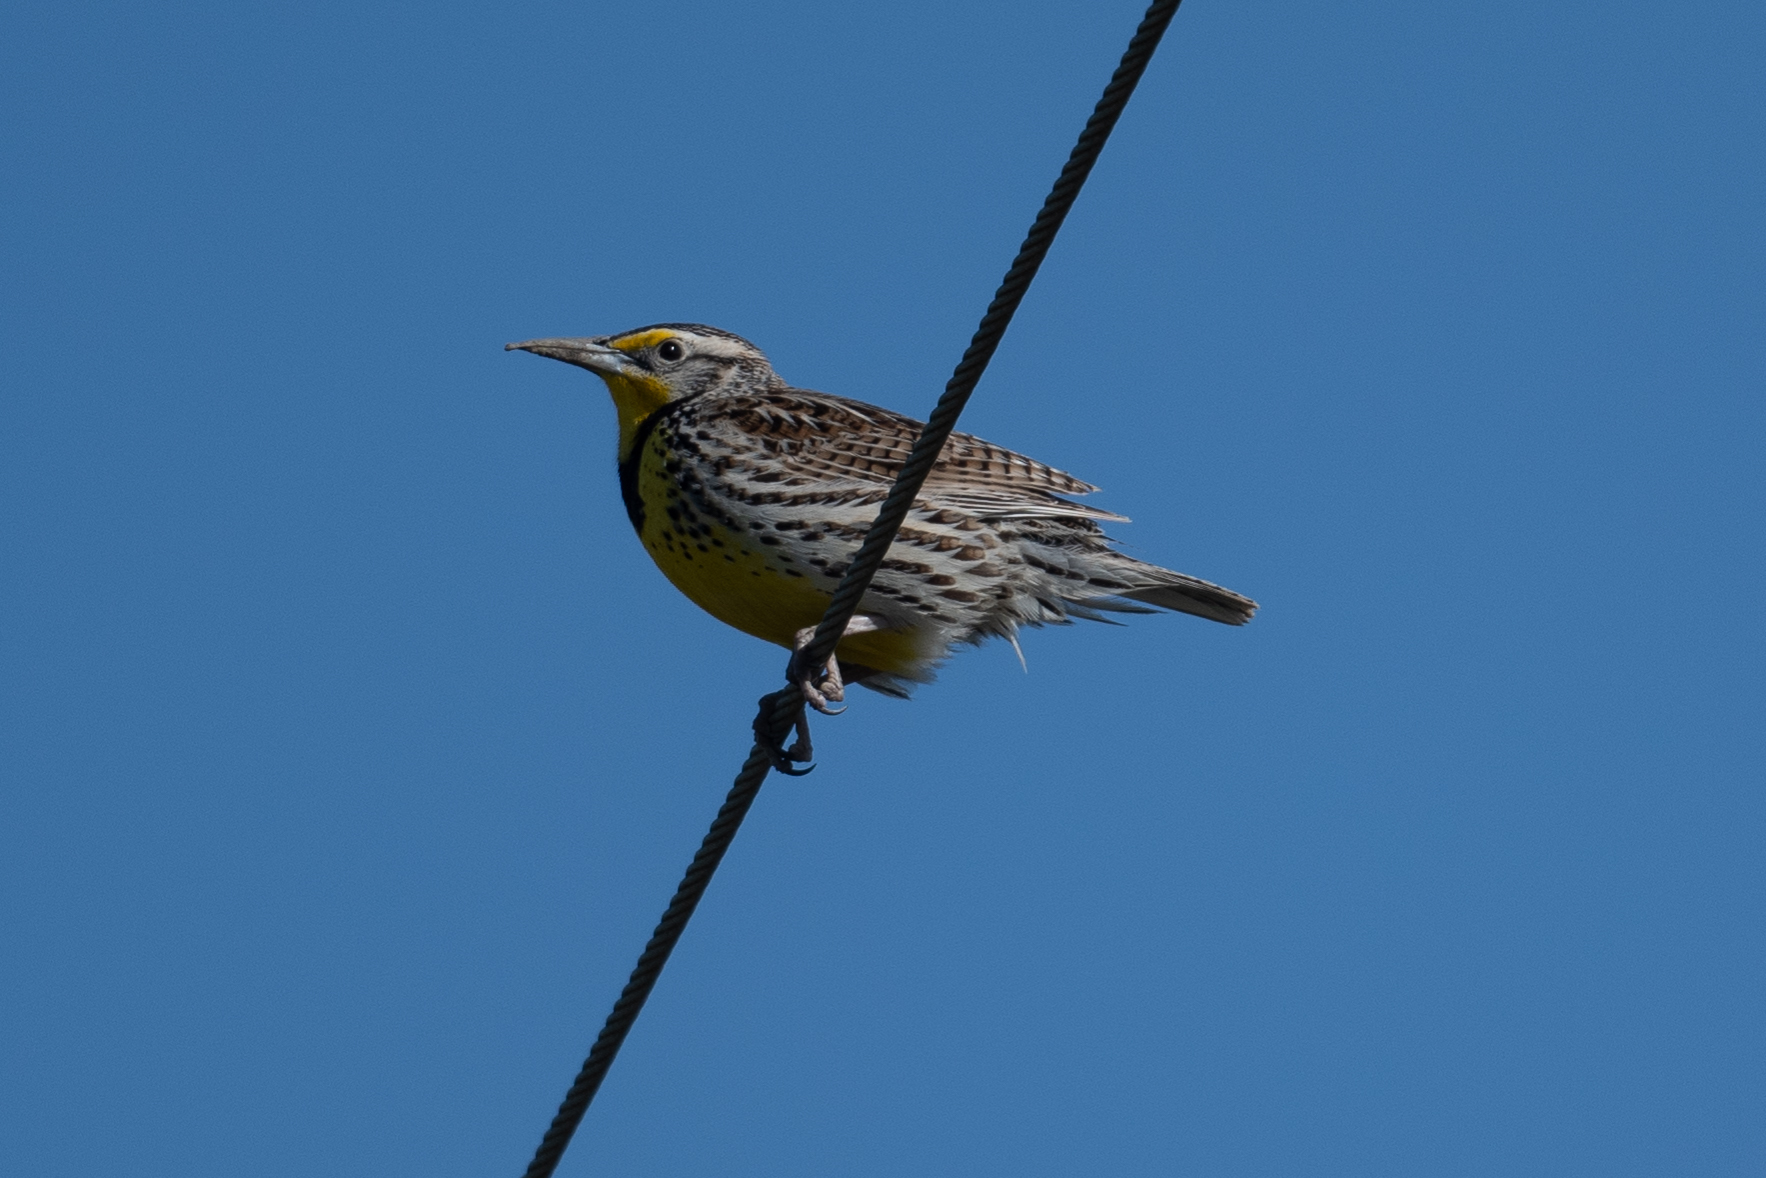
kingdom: Animalia
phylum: Chordata
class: Aves
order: Passeriformes
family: Icteridae
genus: Sturnella
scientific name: Sturnella neglecta
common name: Western meadowlark
